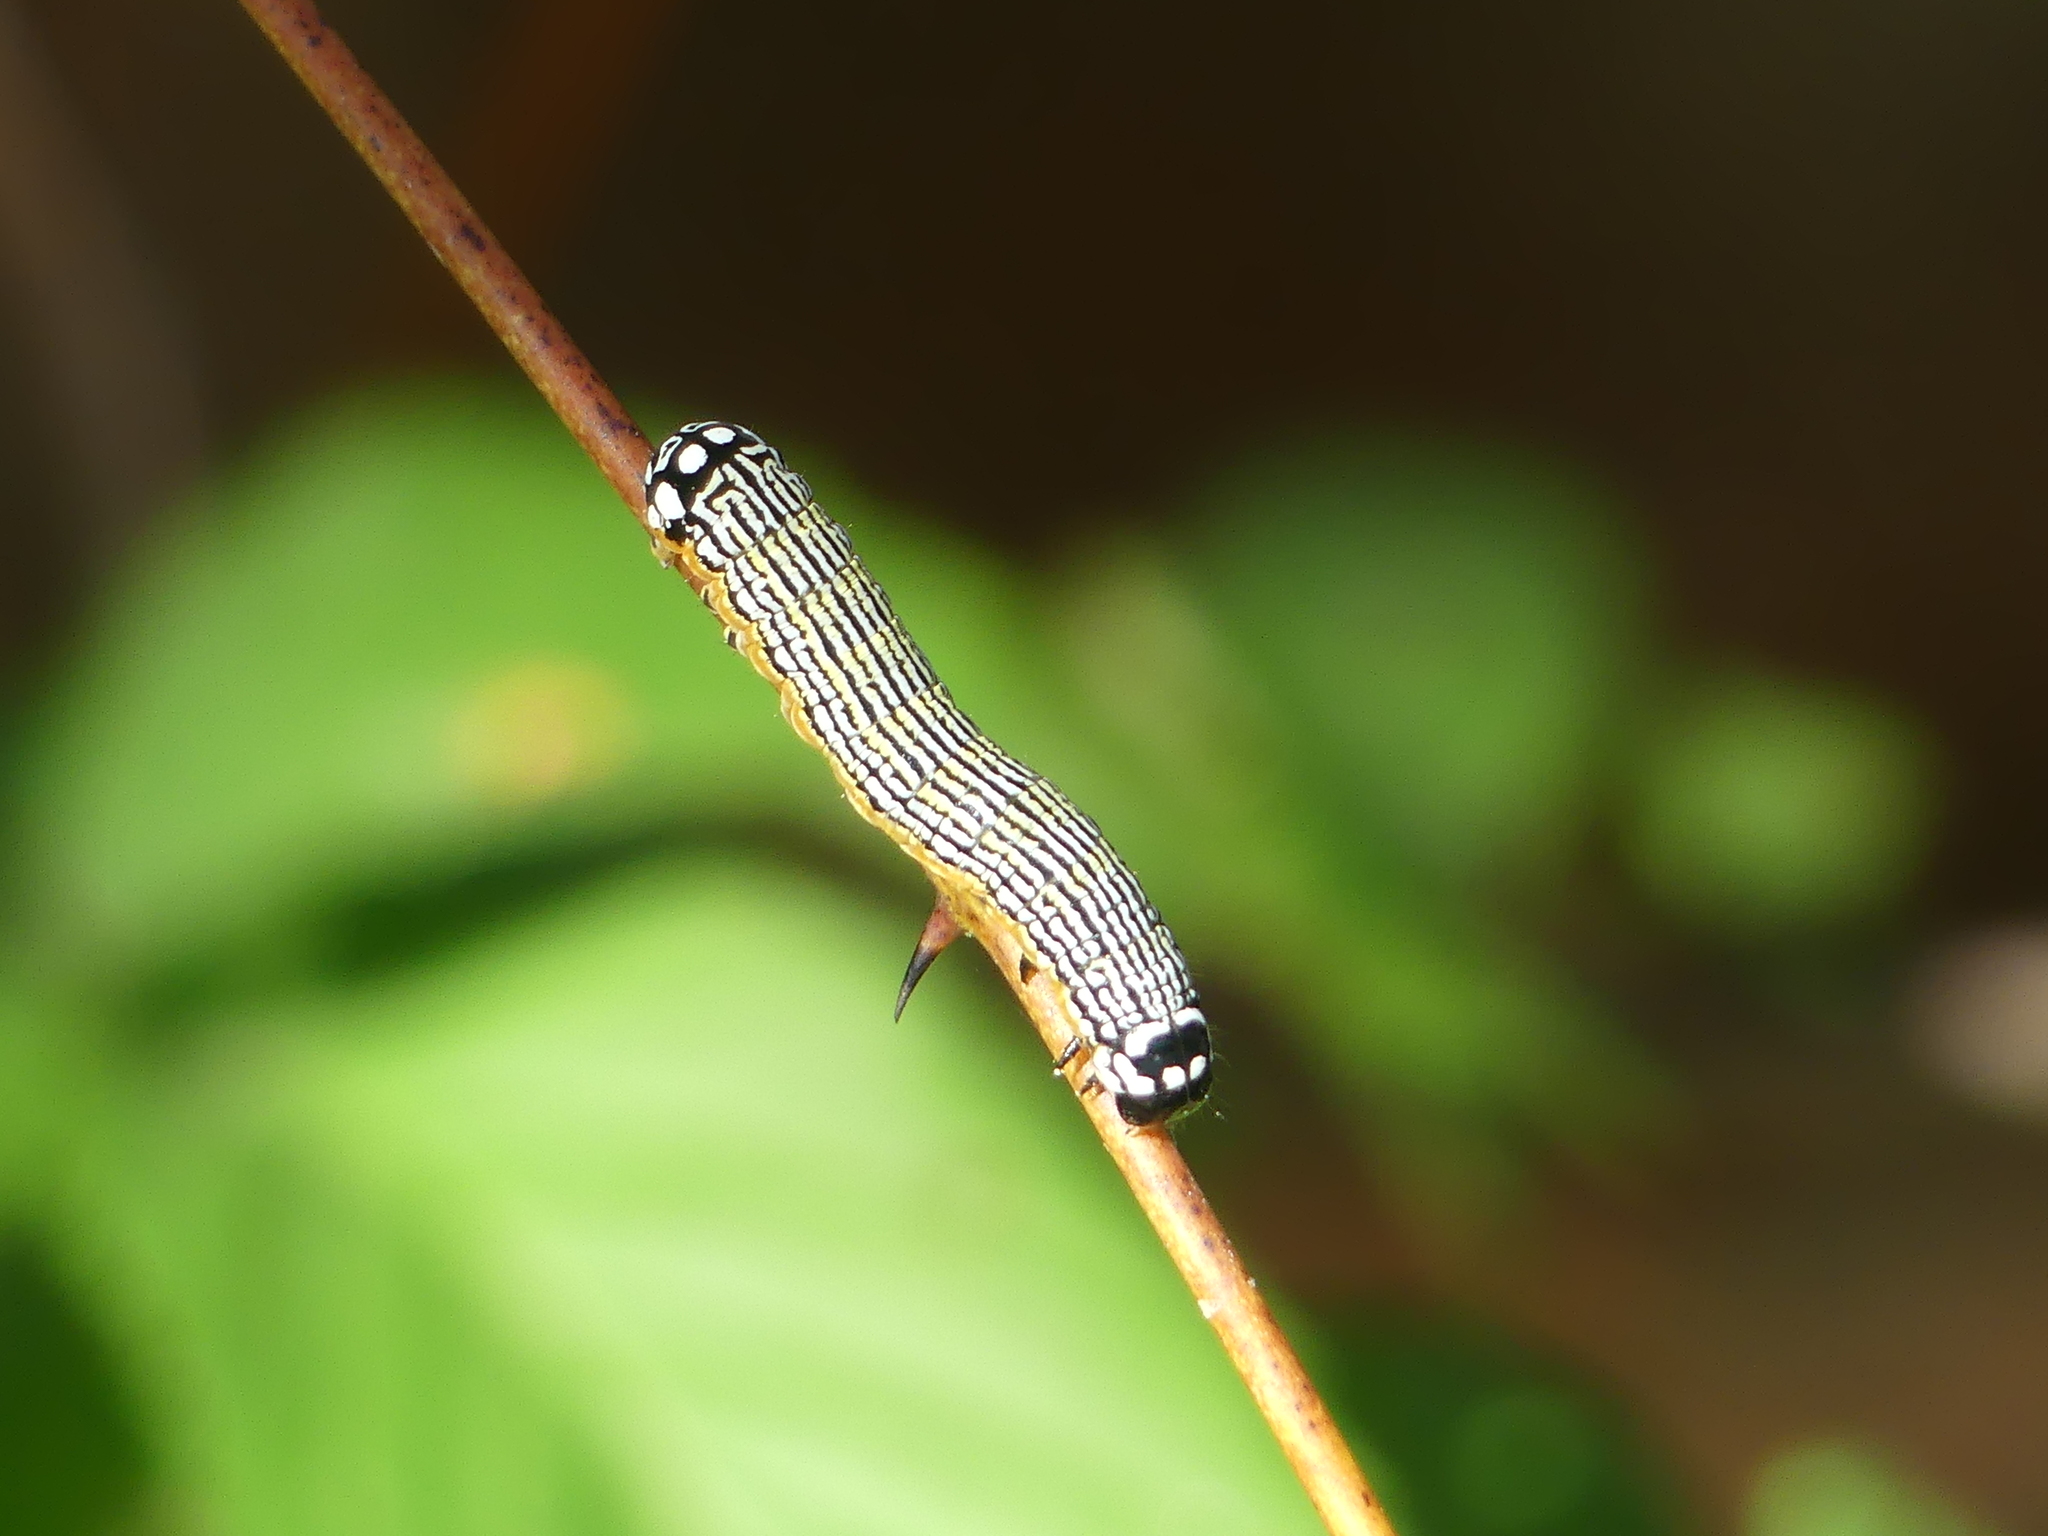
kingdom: Animalia
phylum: Arthropoda
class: Insecta
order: Lepidoptera
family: Noctuidae
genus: Phosphila
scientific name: Phosphila turbulenta
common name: Turbulent phosphila moth
